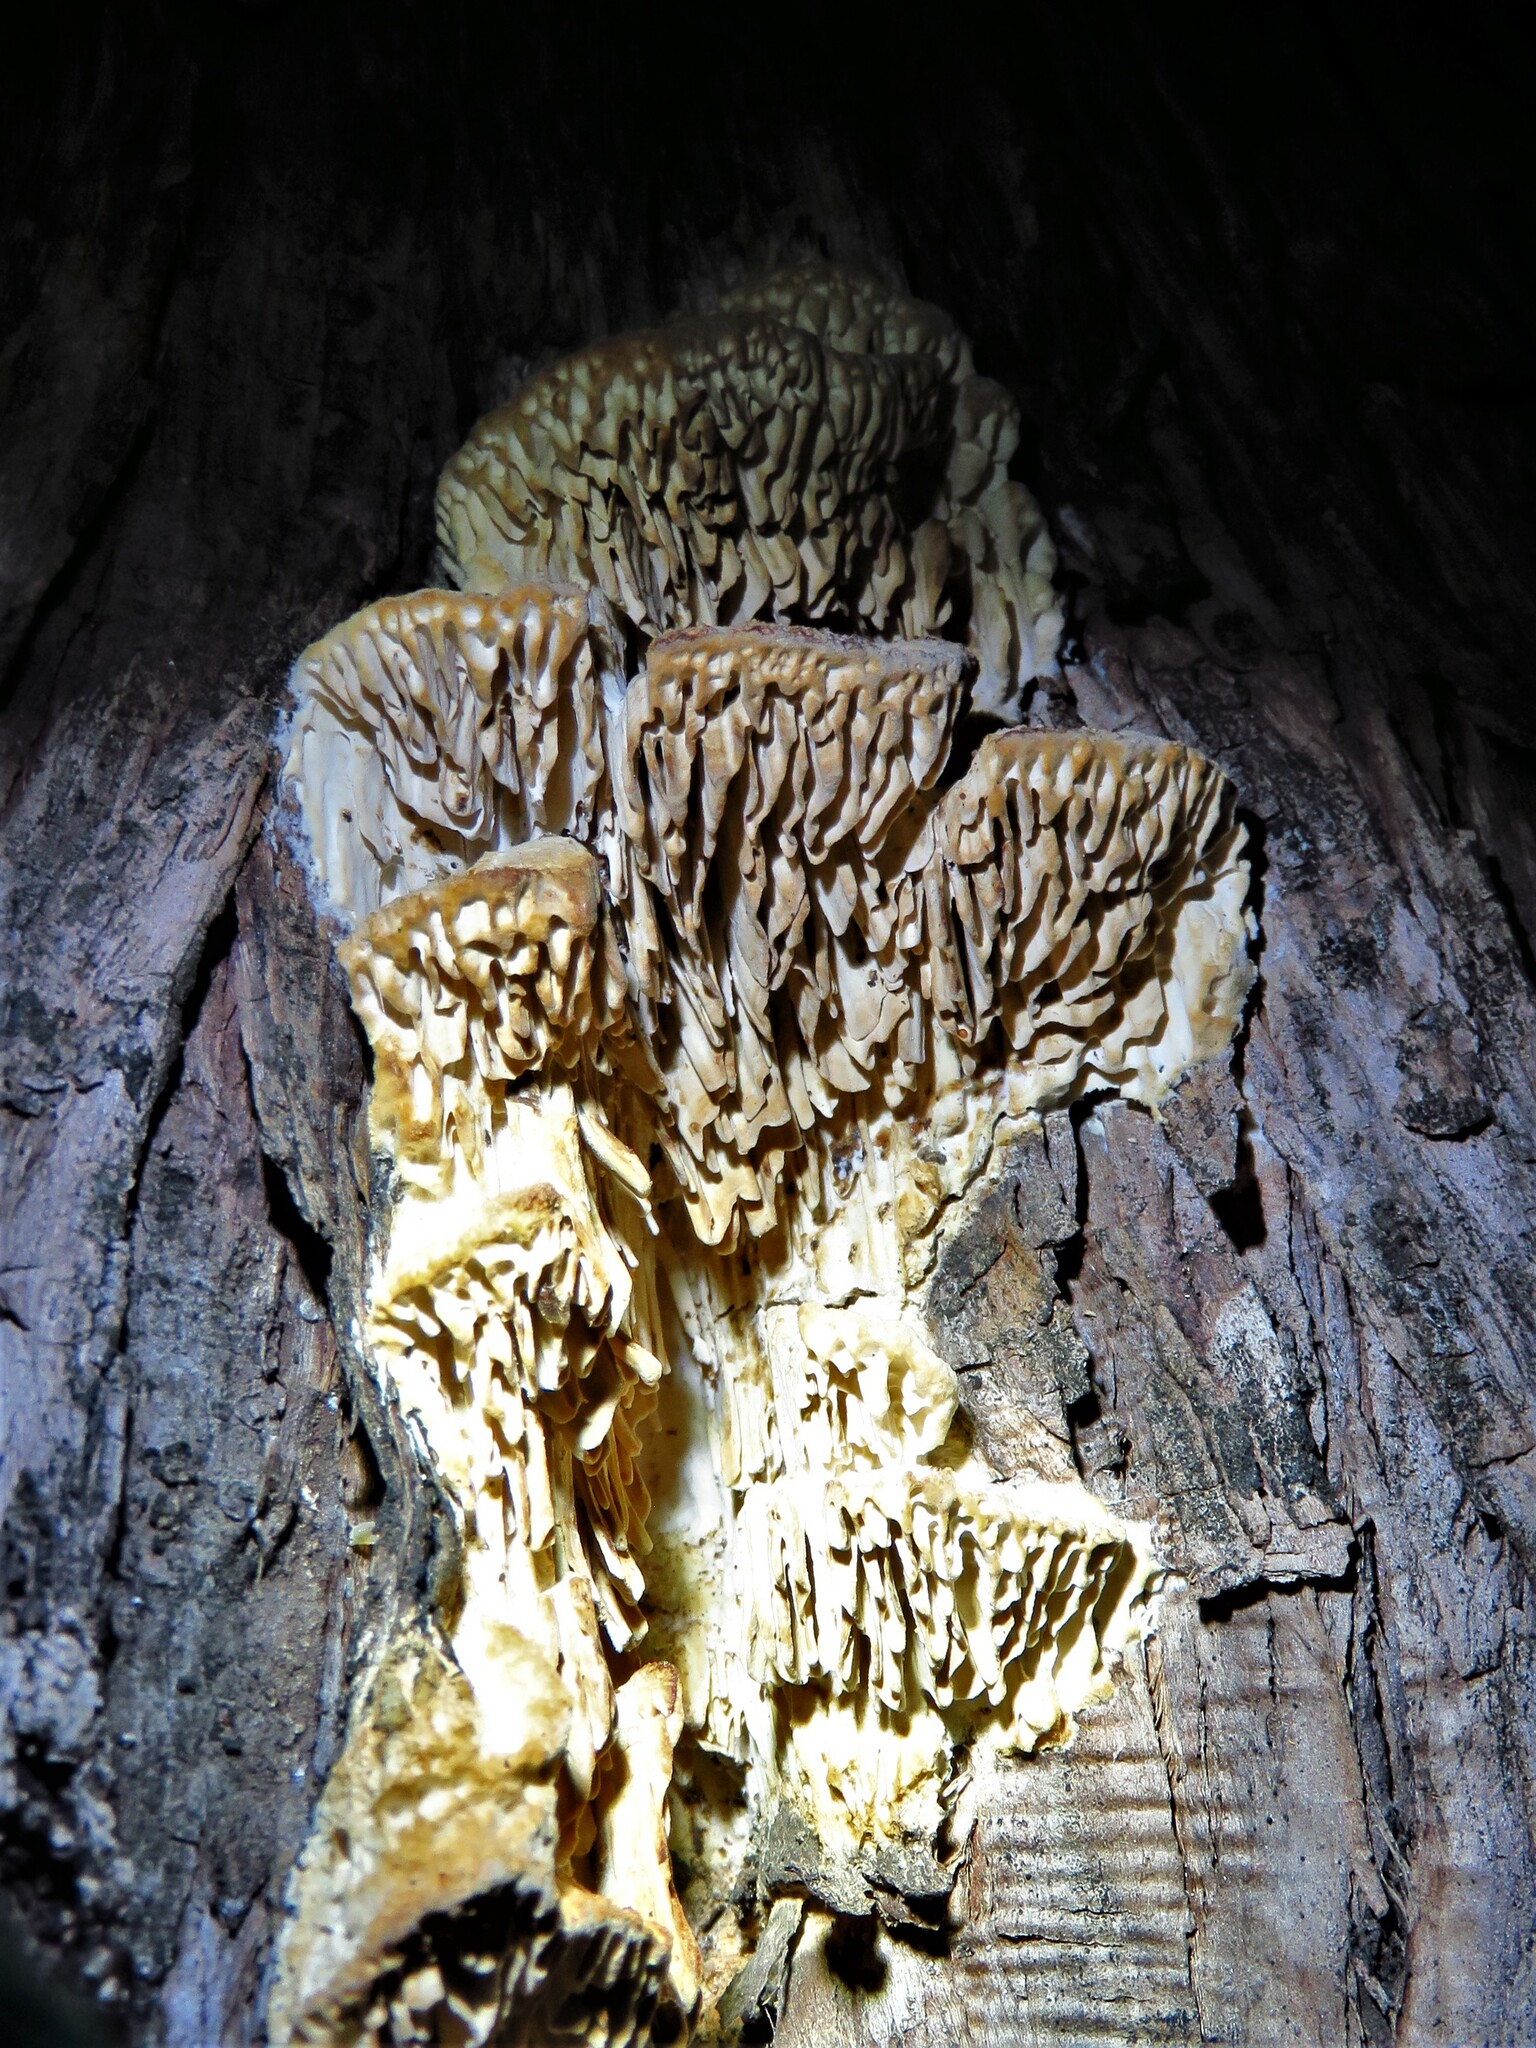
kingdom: Fungi
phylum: Basidiomycota
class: Agaricomycetes
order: Polyporales
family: Fomitopsidaceae
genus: Fomitopsis
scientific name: Fomitopsis
